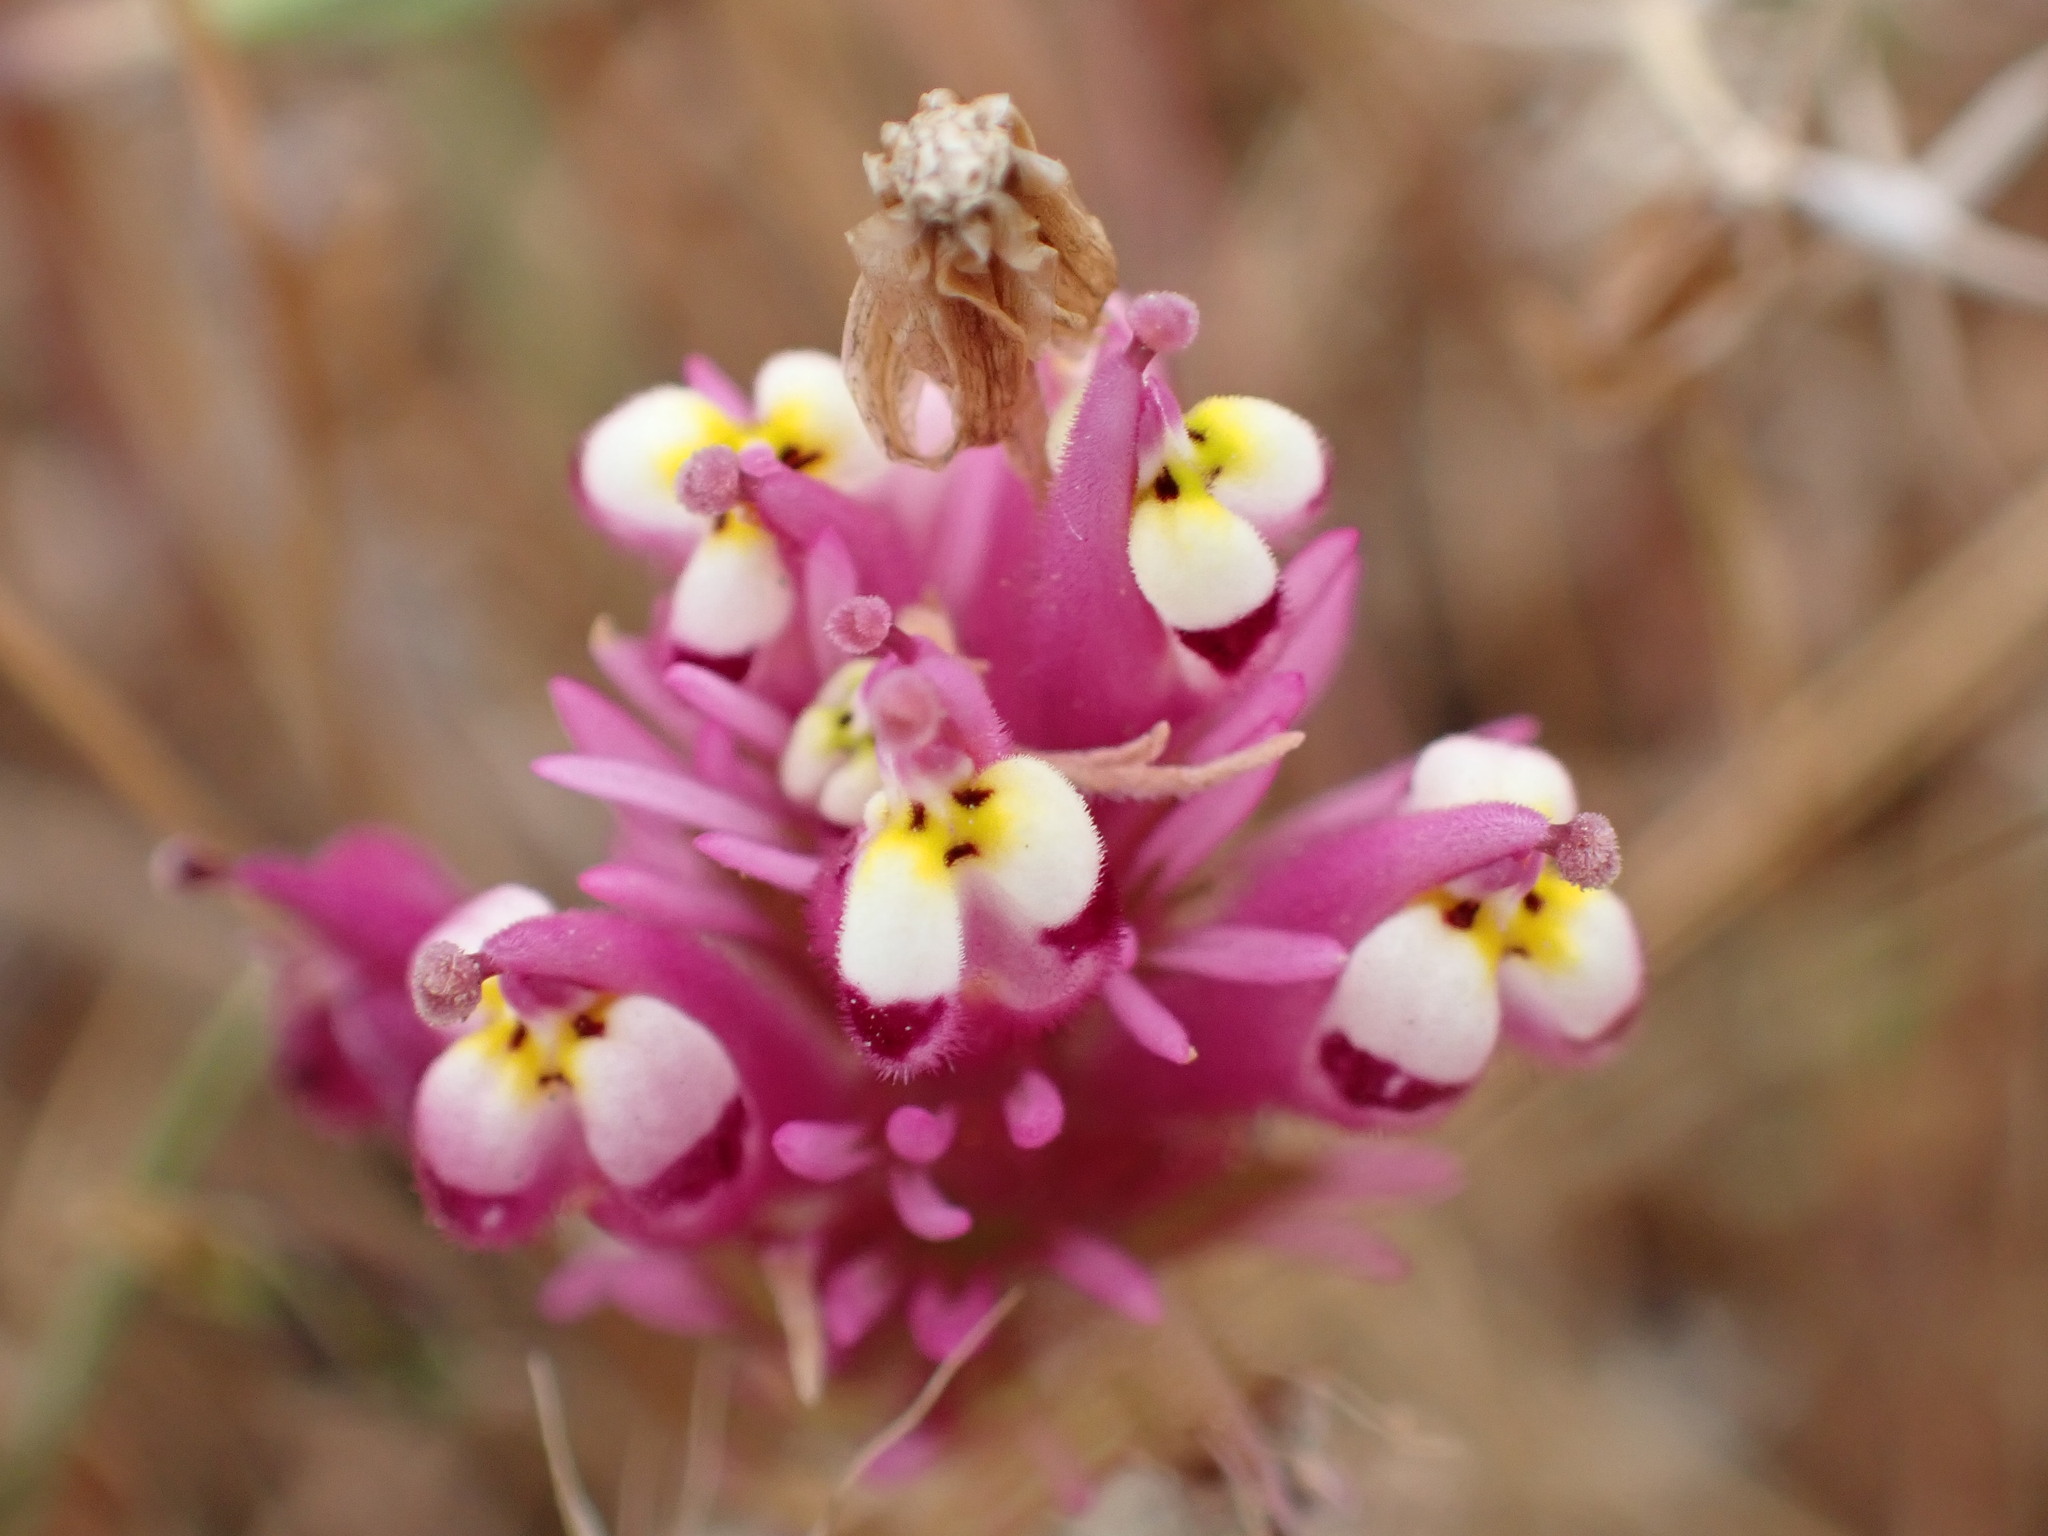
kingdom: Plantae
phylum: Tracheophyta
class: Magnoliopsida
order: Lamiales
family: Orobanchaceae
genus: Castilleja
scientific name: Castilleja densiflora
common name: Dense-flower indian paintbrush
